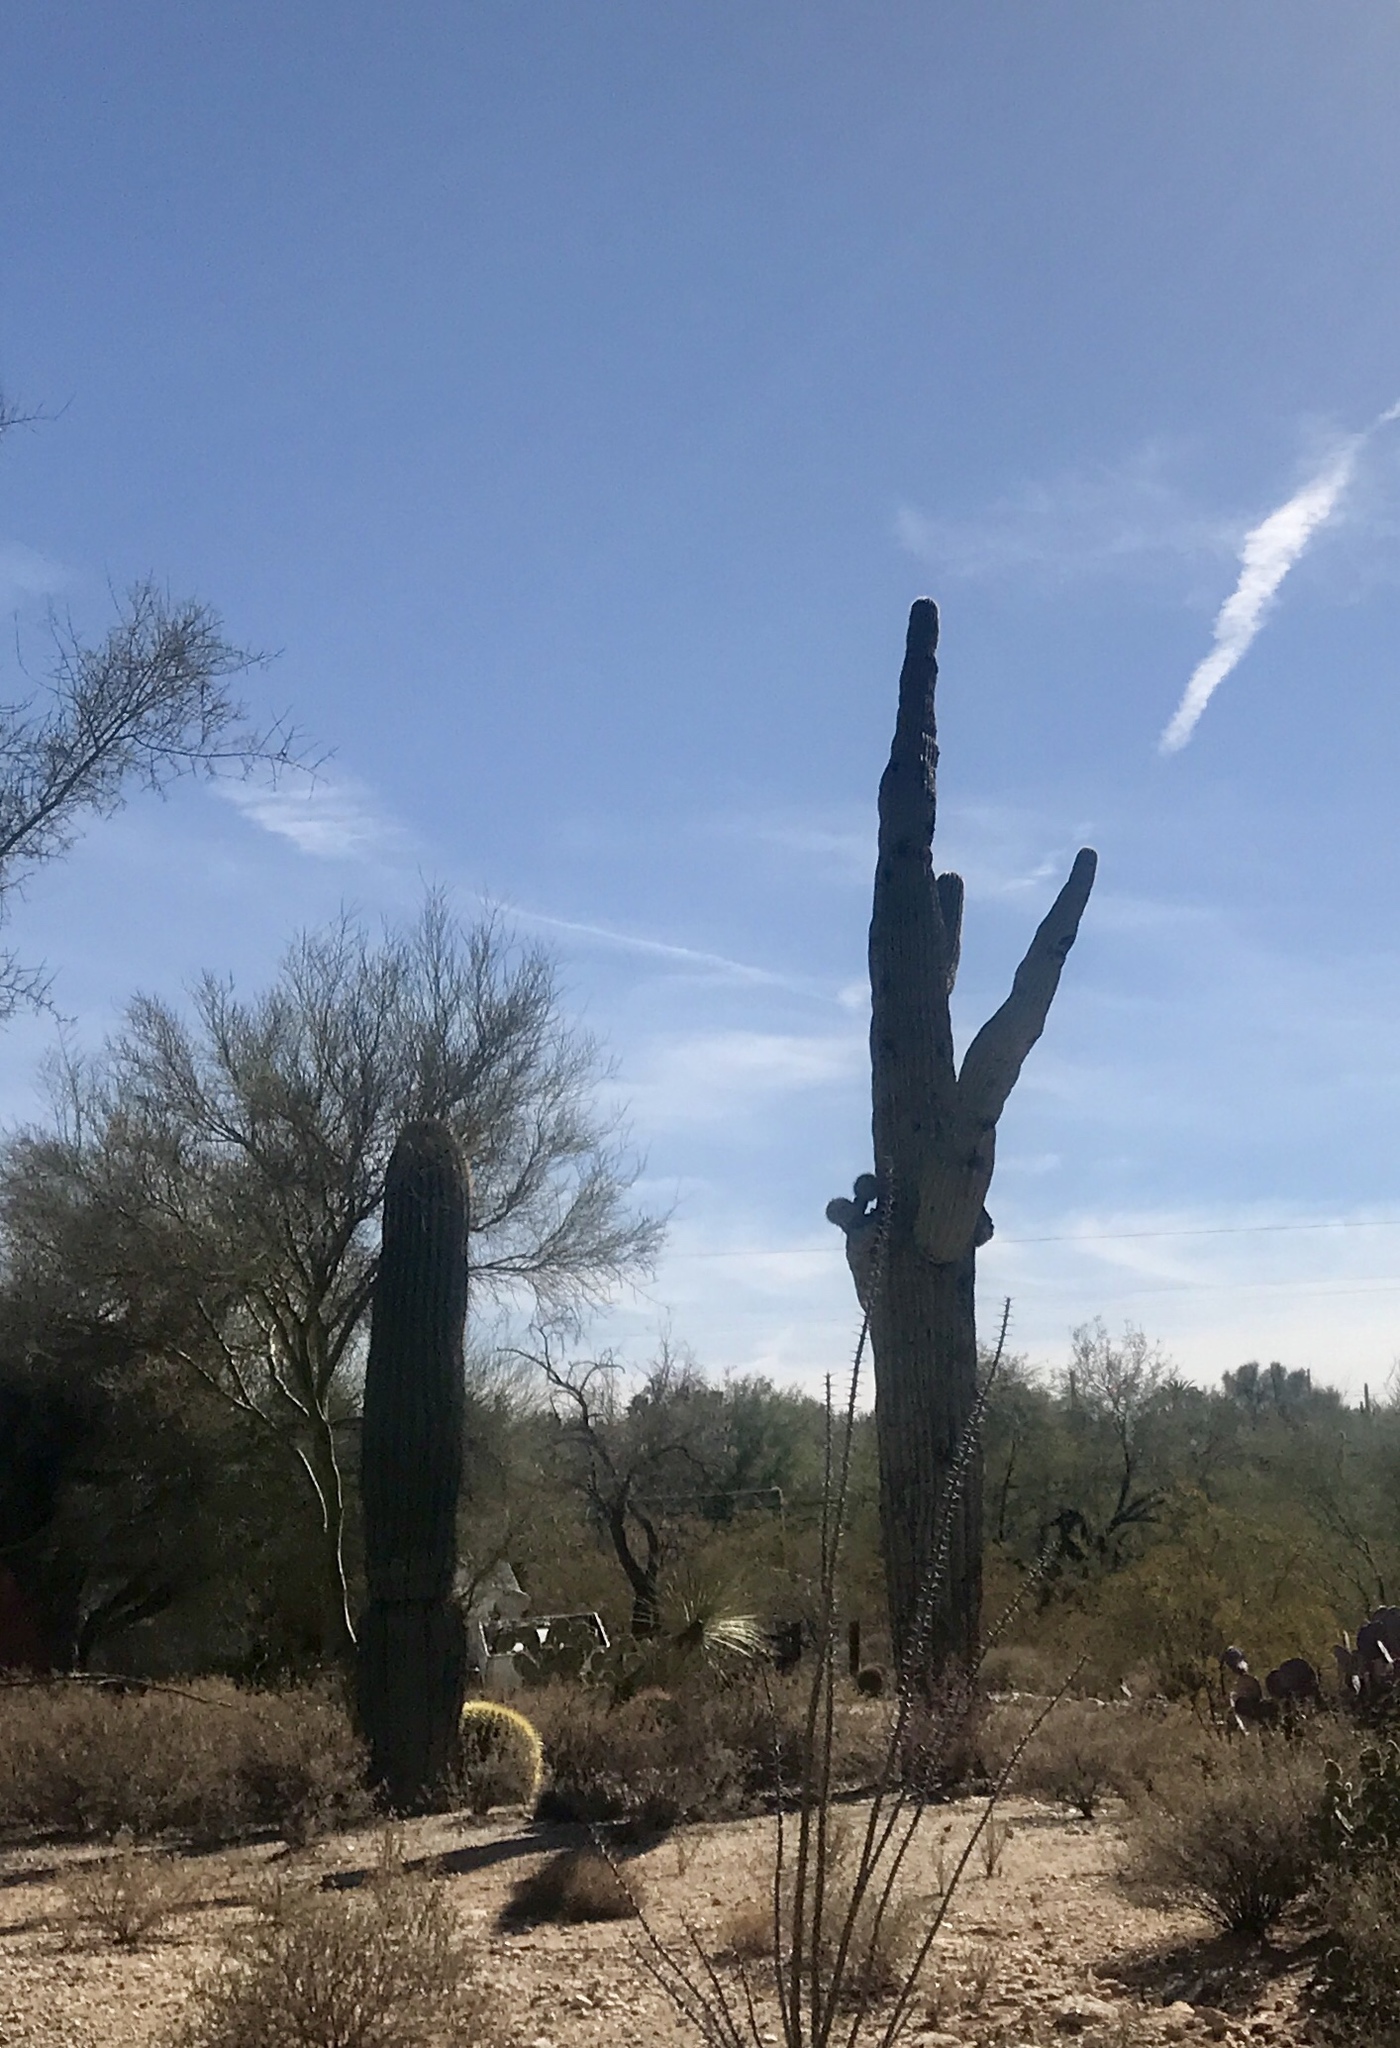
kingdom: Plantae
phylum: Tracheophyta
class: Magnoliopsida
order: Caryophyllales
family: Cactaceae
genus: Carnegiea
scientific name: Carnegiea gigantea
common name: Saguaro
